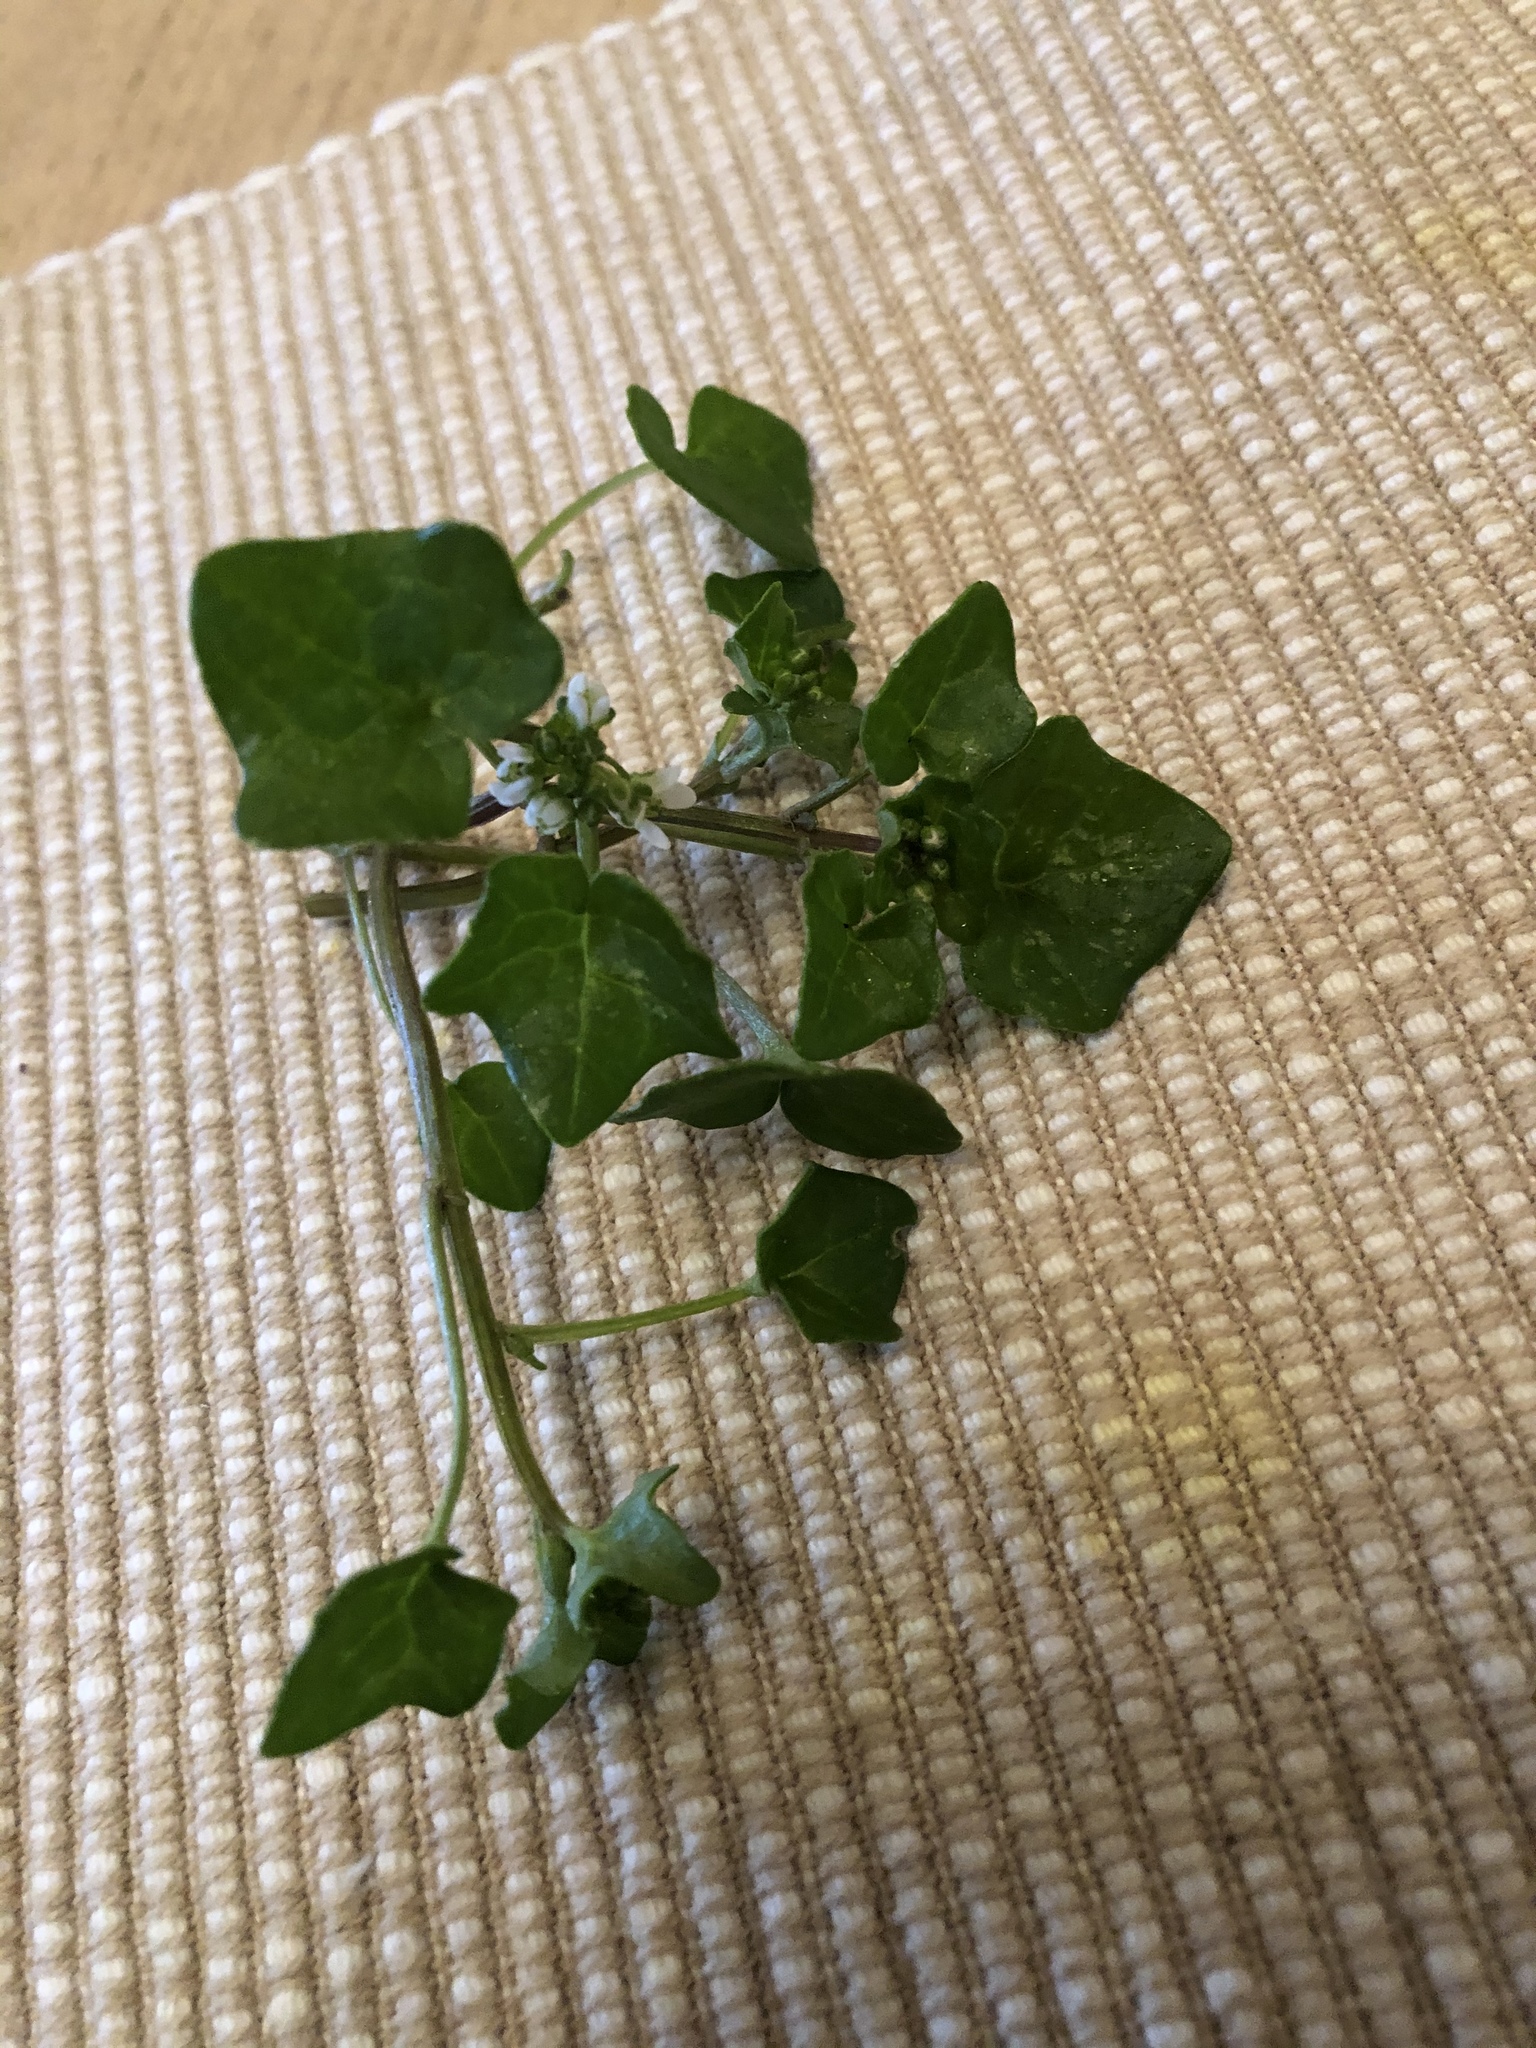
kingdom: Plantae
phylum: Tracheophyta
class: Magnoliopsida
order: Brassicales
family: Brassicaceae
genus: Cochlearia
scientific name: Cochlearia danica
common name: Early scurvygrass
